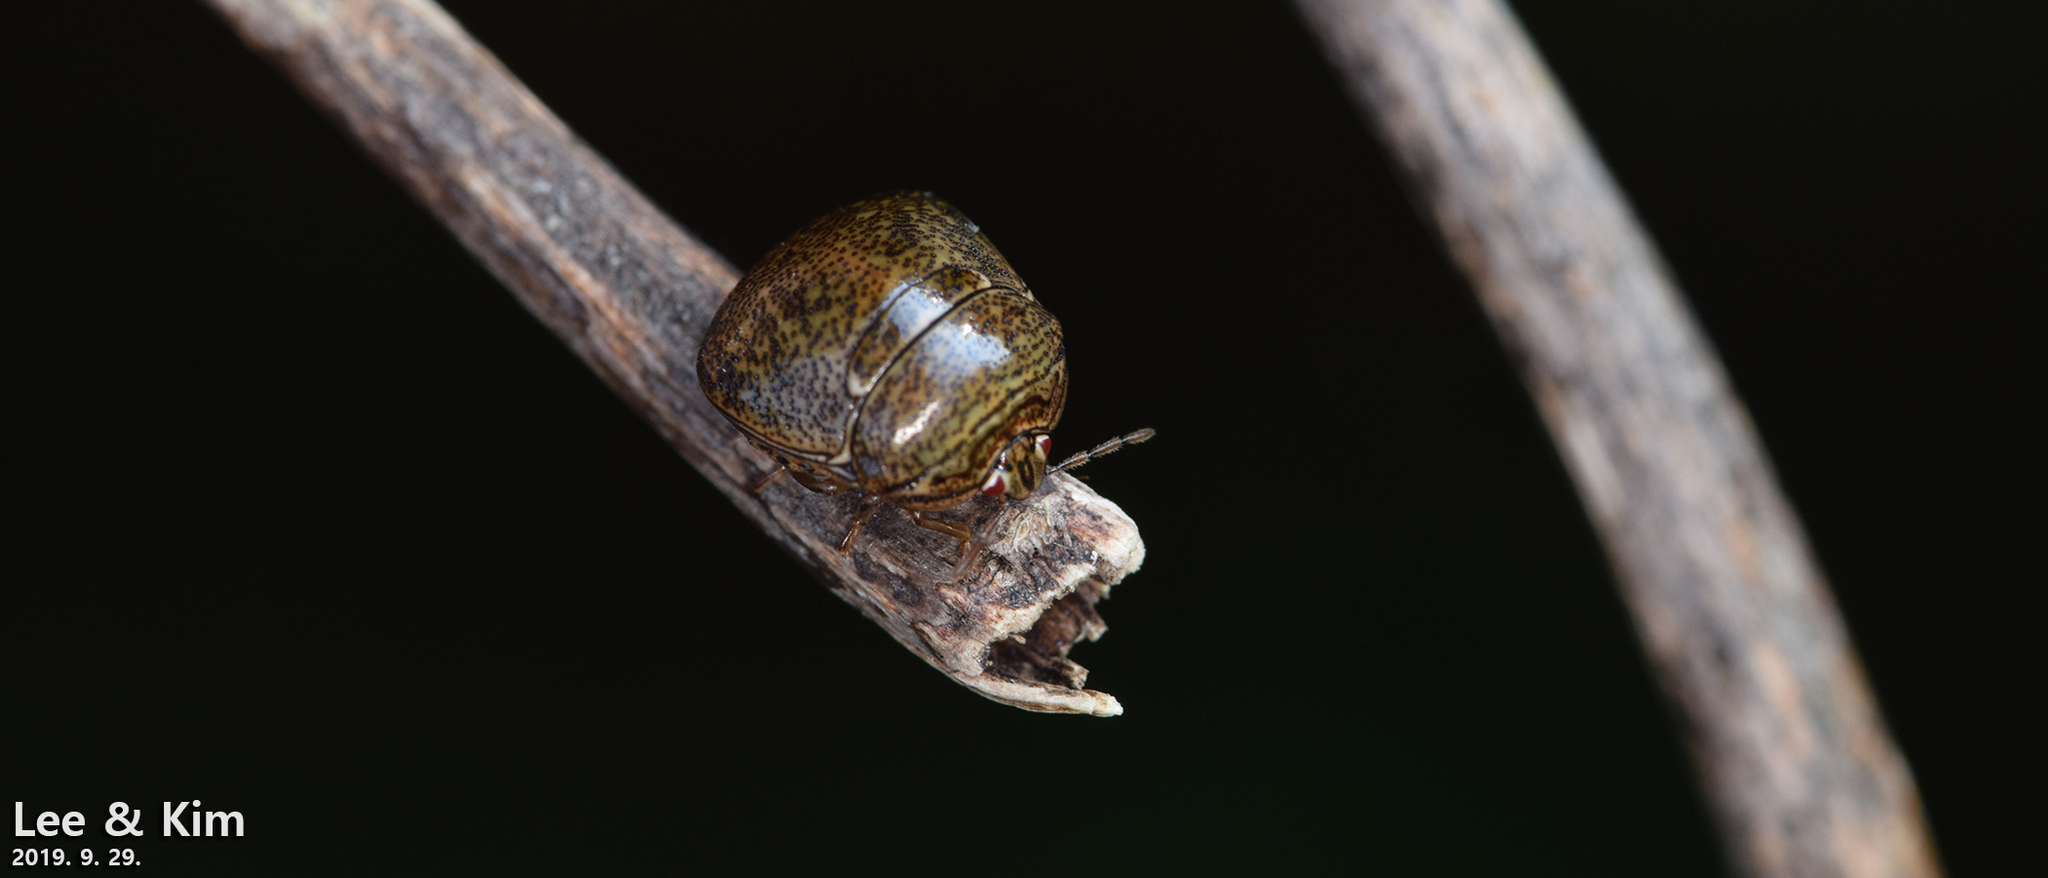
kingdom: Animalia
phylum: Arthropoda
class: Insecta
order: Hemiptera
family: Plataspidae
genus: Megacopta
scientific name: Megacopta cribraria
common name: Bean plataspid
